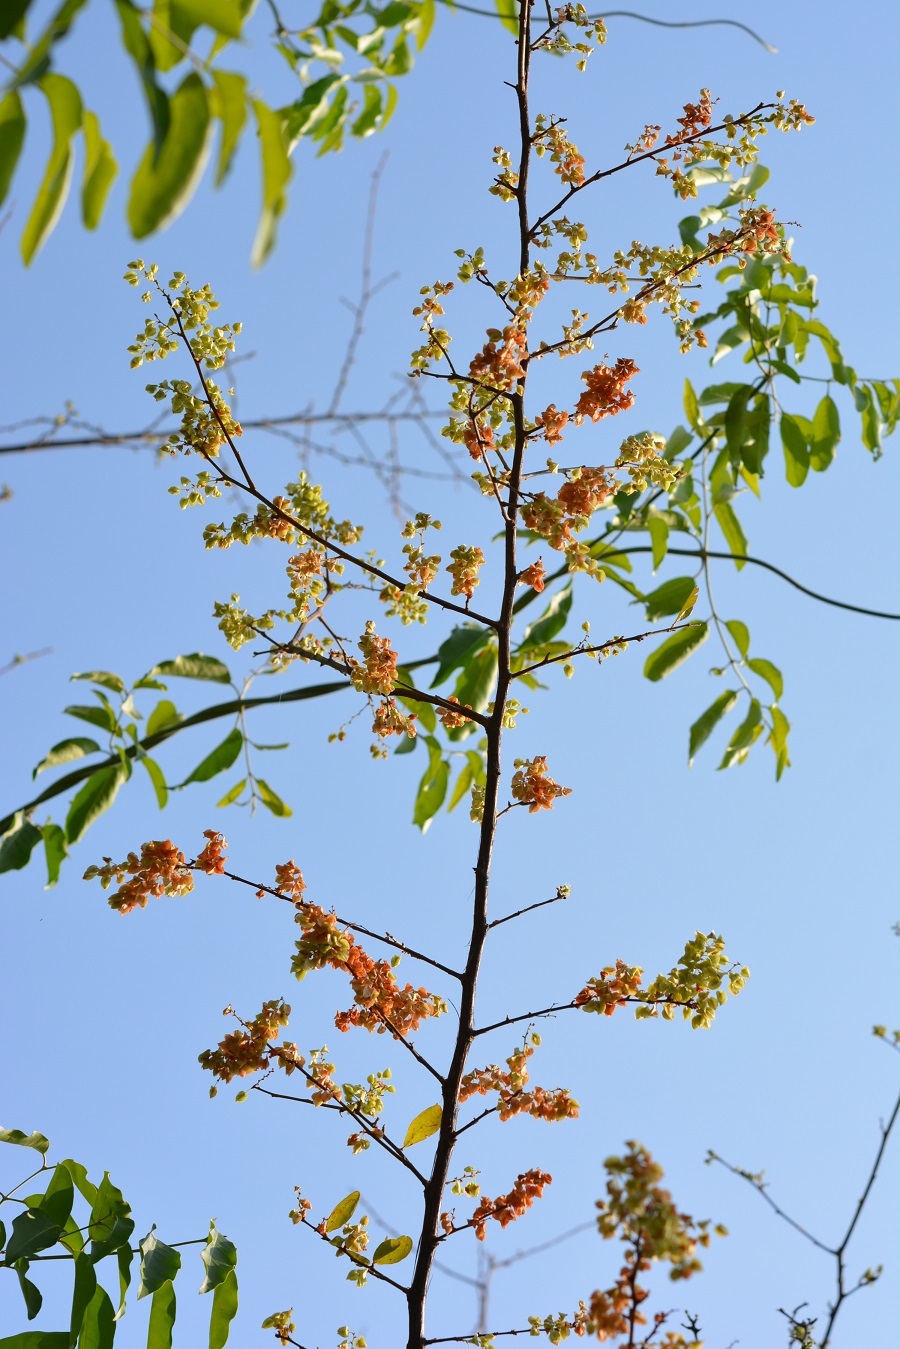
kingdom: Plantae
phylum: Tracheophyta
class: Magnoliopsida
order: Caryophyllales
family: Polygonaceae
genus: Gymnopodium
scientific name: Gymnopodium floribundum
